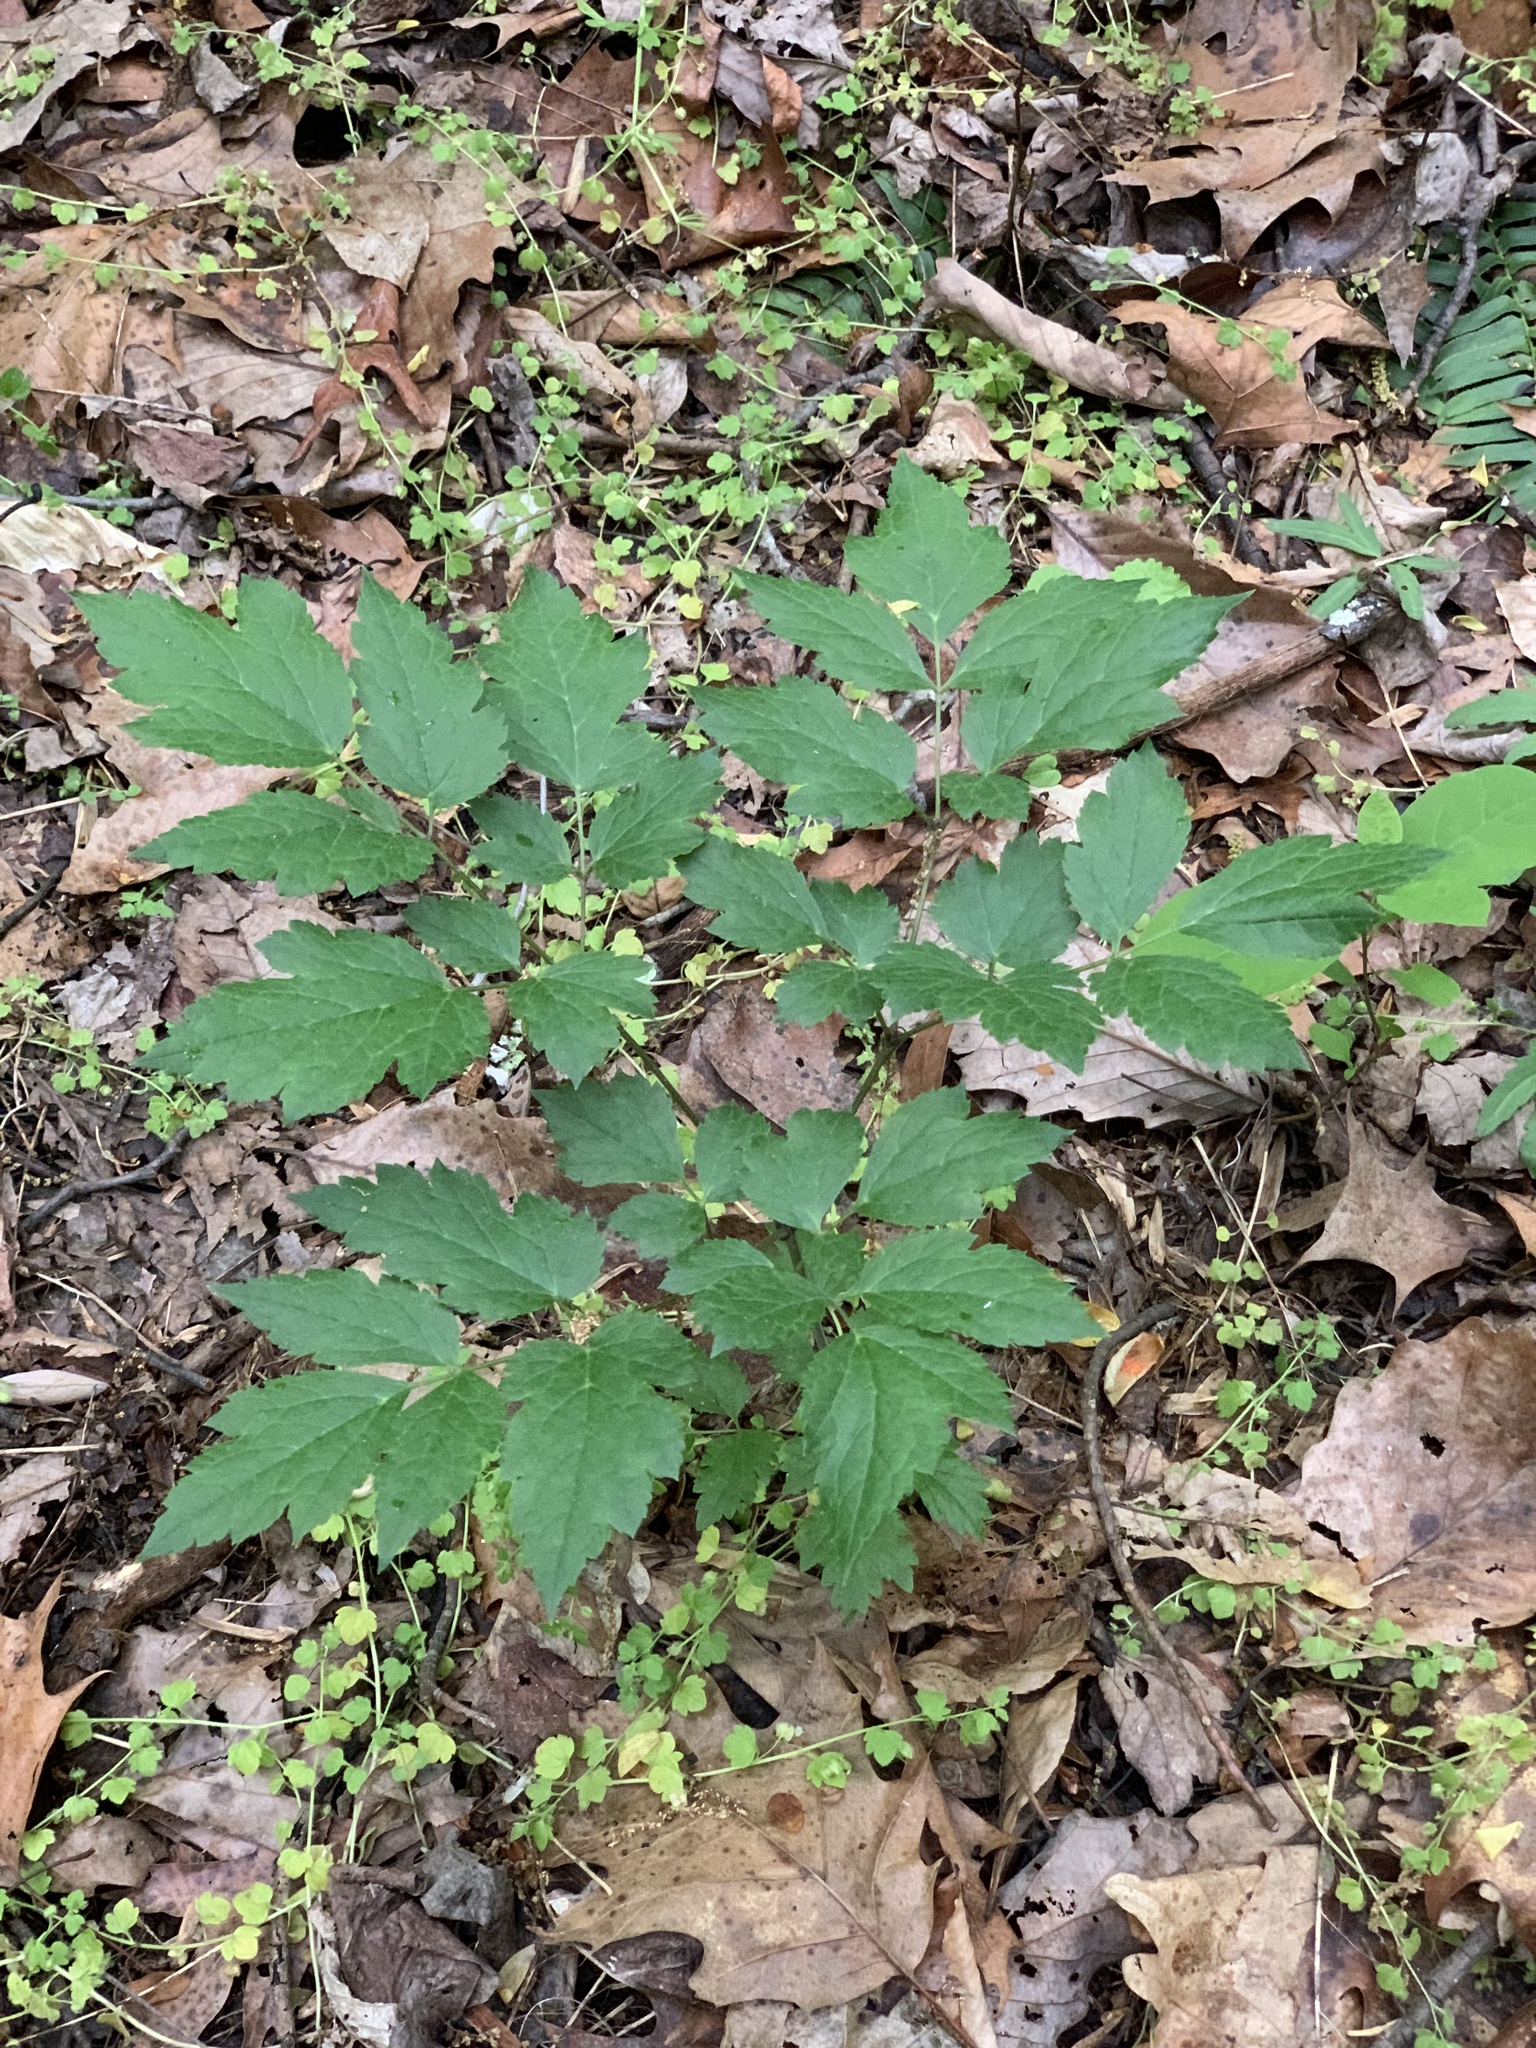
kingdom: Plantae
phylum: Tracheophyta
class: Magnoliopsida
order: Ranunculales
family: Ranunculaceae
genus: Actaea
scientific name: Actaea racemosa
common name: Black cohosh
